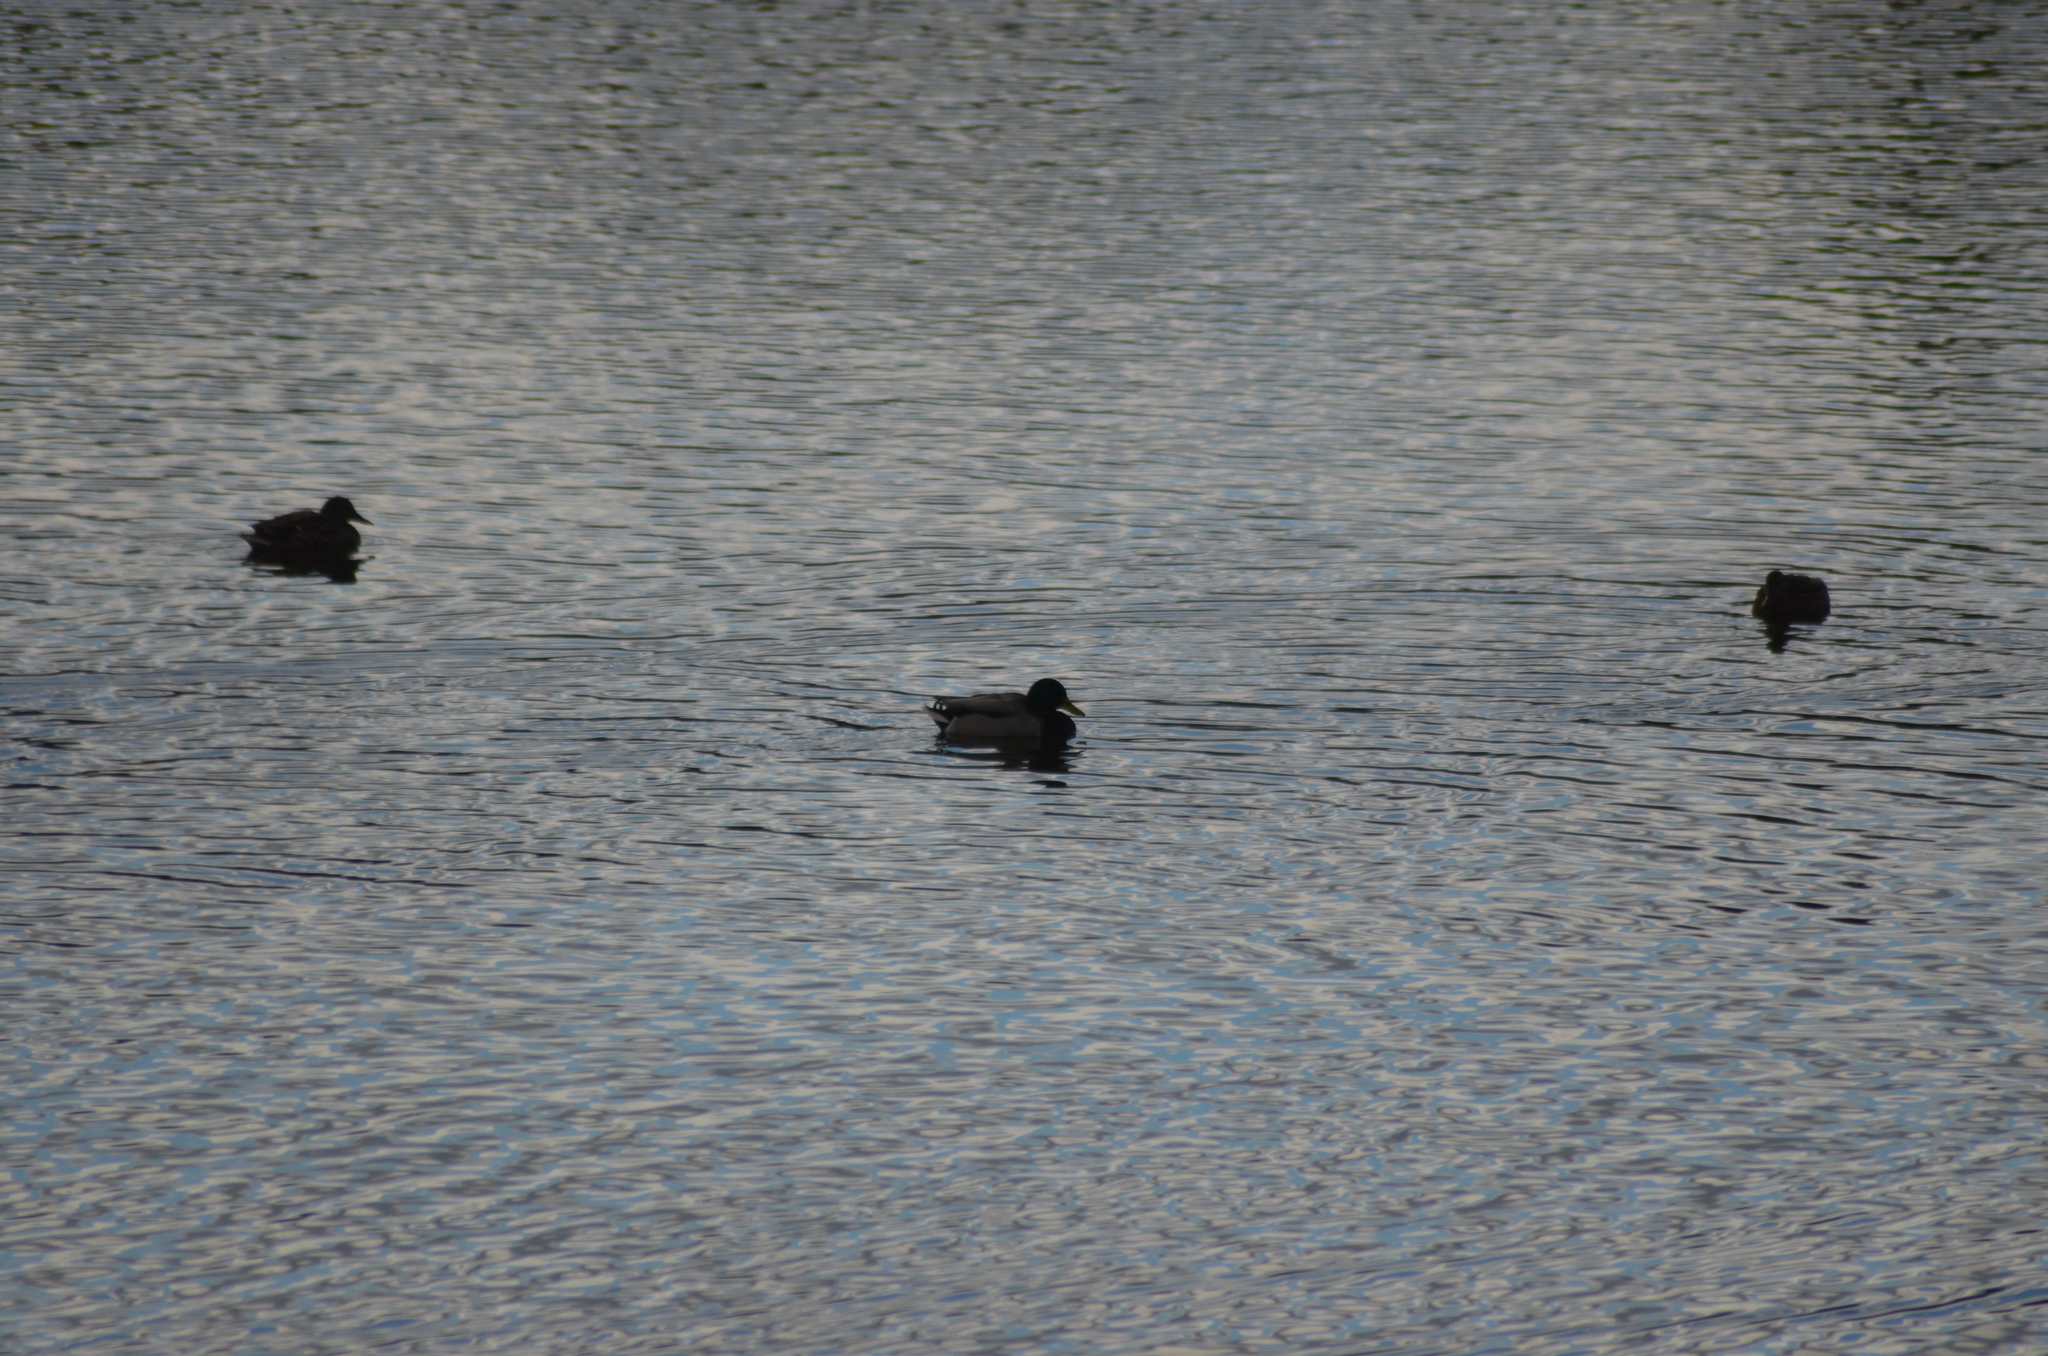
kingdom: Animalia
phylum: Chordata
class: Aves
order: Anseriformes
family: Anatidae
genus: Anas
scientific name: Anas platyrhynchos
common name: Mallard
